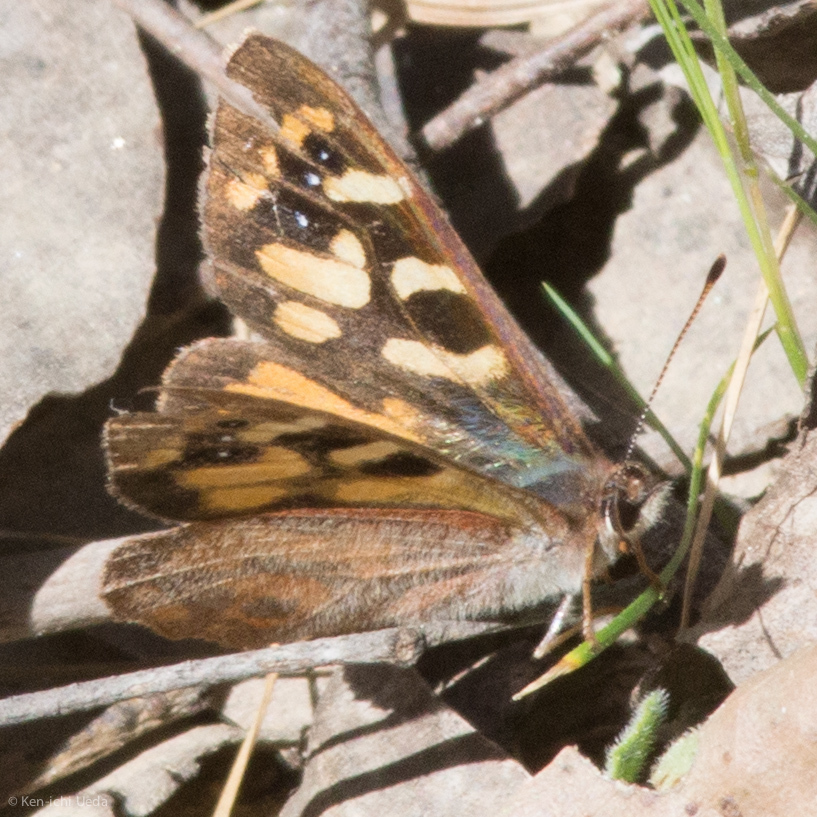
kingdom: Animalia
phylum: Arthropoda
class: Insecta
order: Lepidoptera
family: Nymphalidae
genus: Argynnina
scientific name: Argynnina cyrila
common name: Cyril's brown
